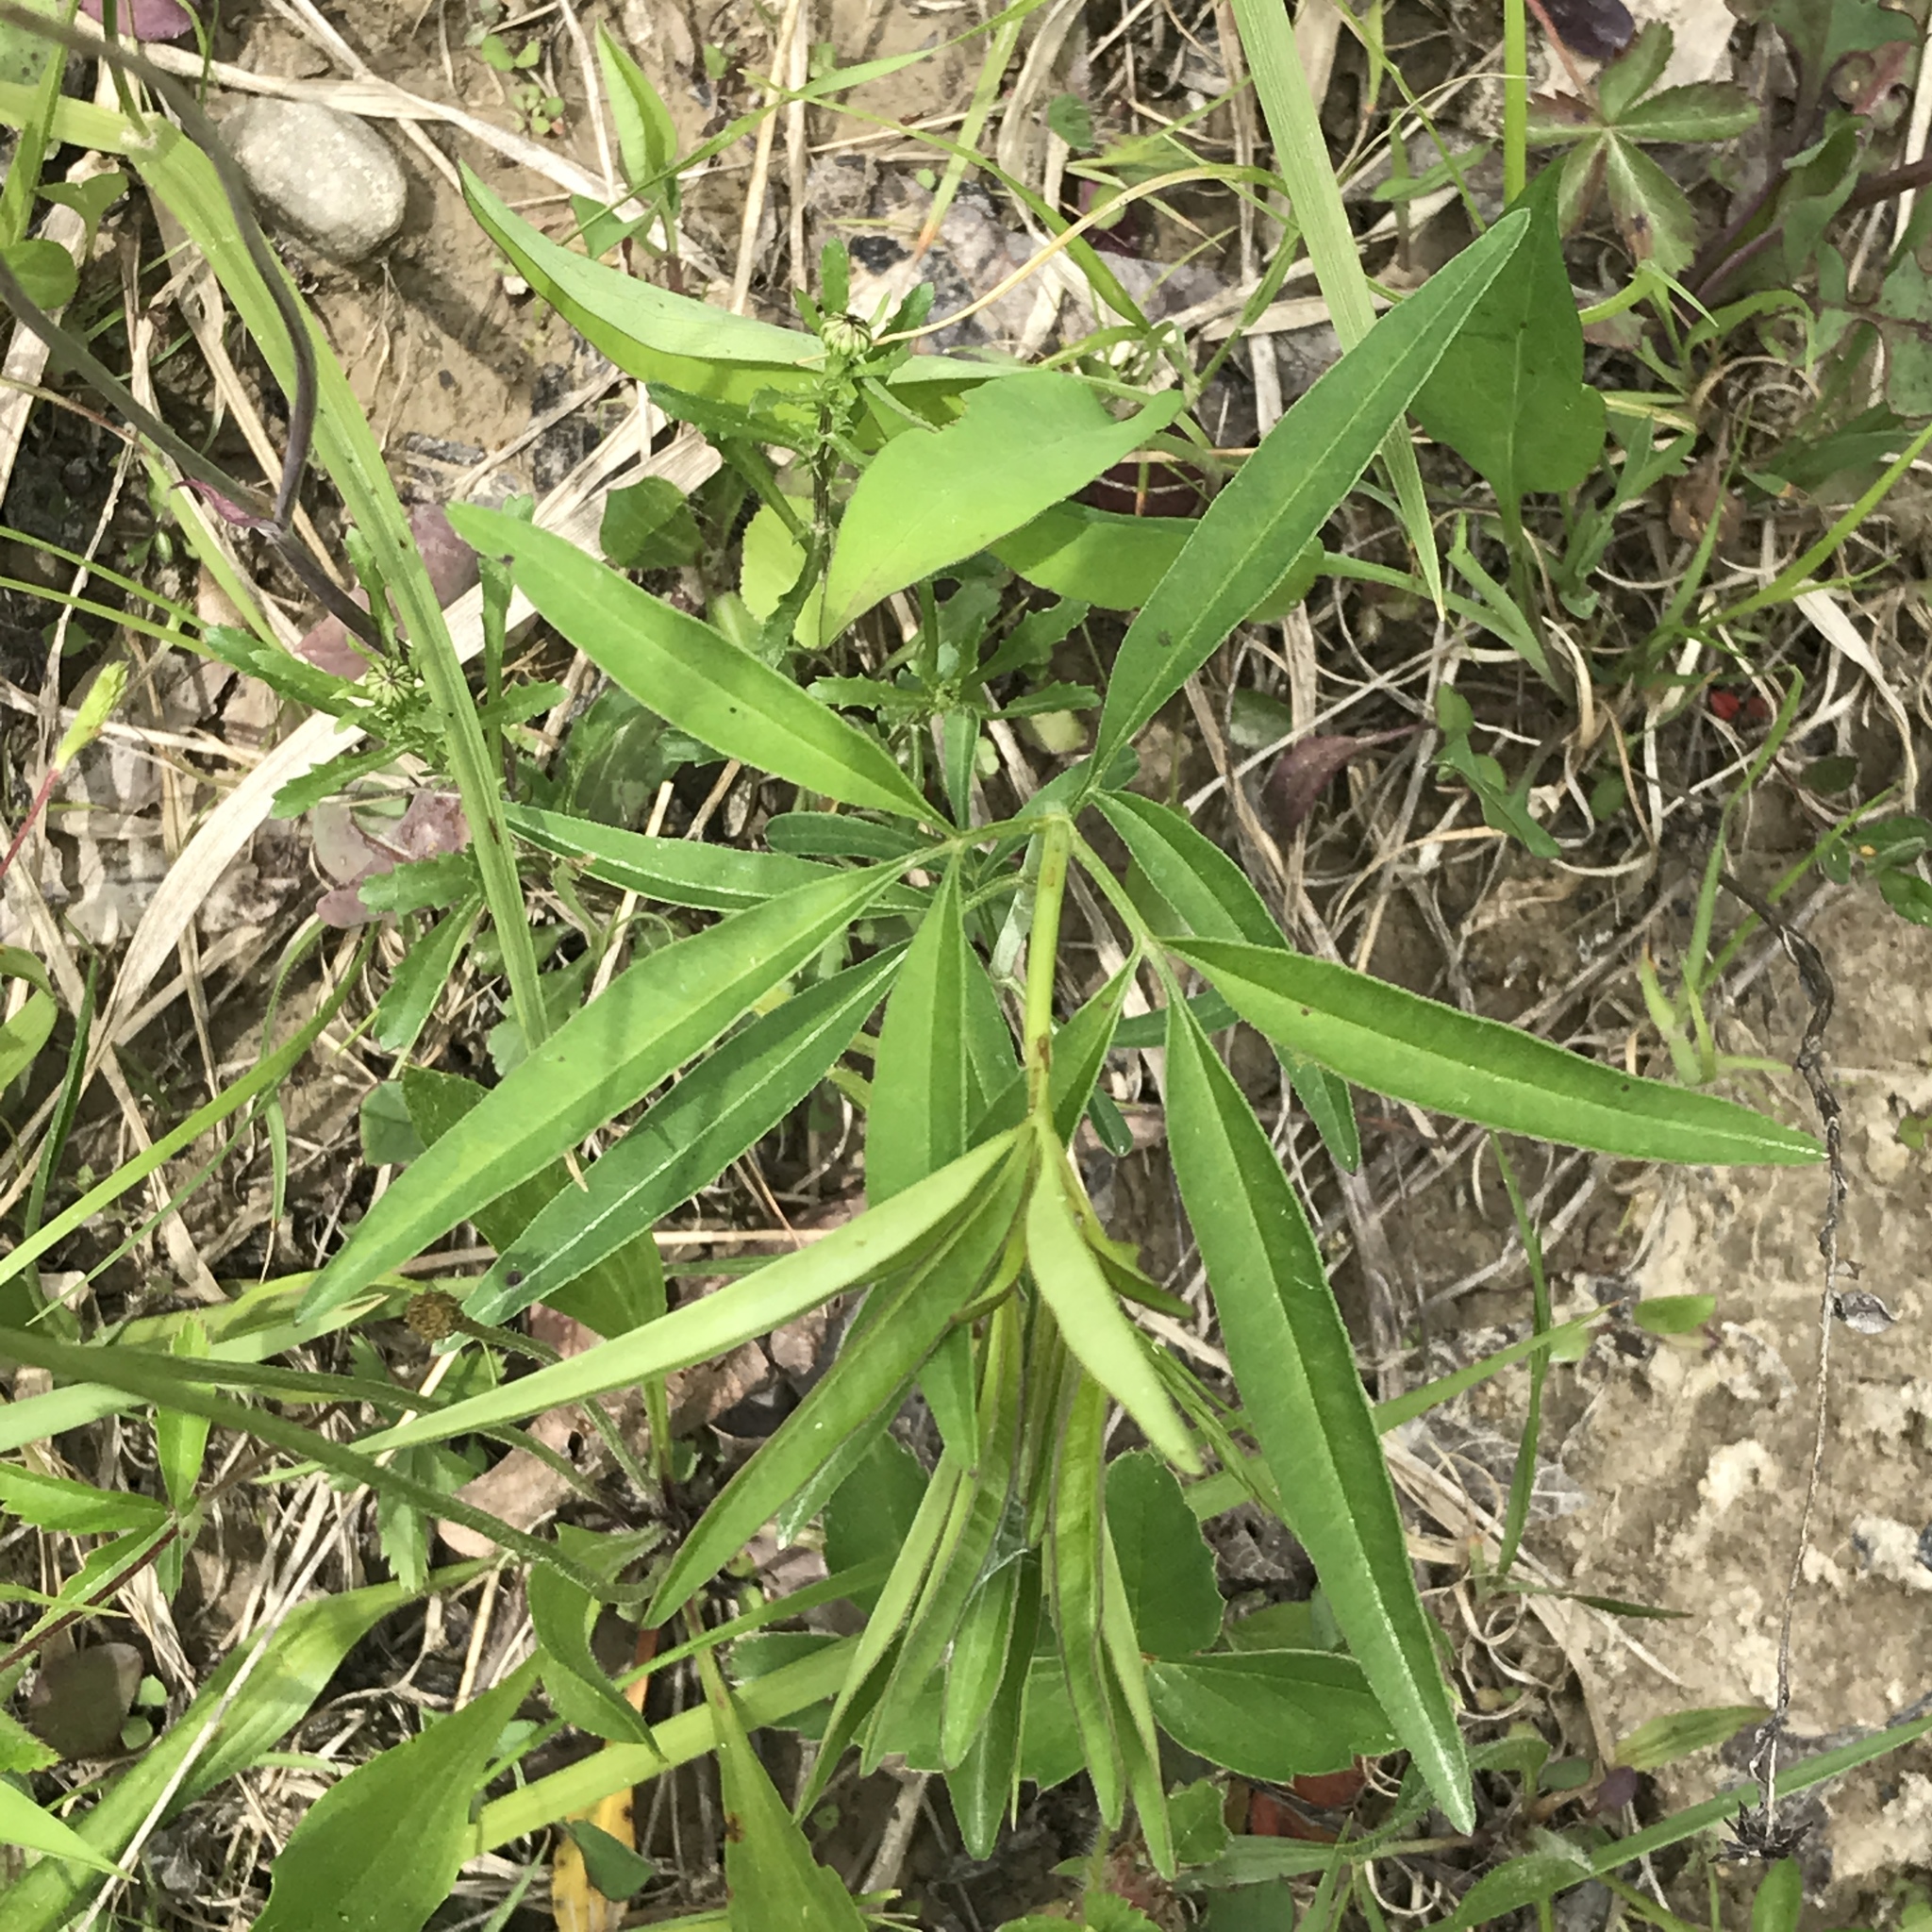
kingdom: Plantae
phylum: Tracheophyta
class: Magnoliopsida
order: Asterales
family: Asteraceae
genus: Coreopsis
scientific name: Coreopsis tripteris
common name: Tall coreopsis
